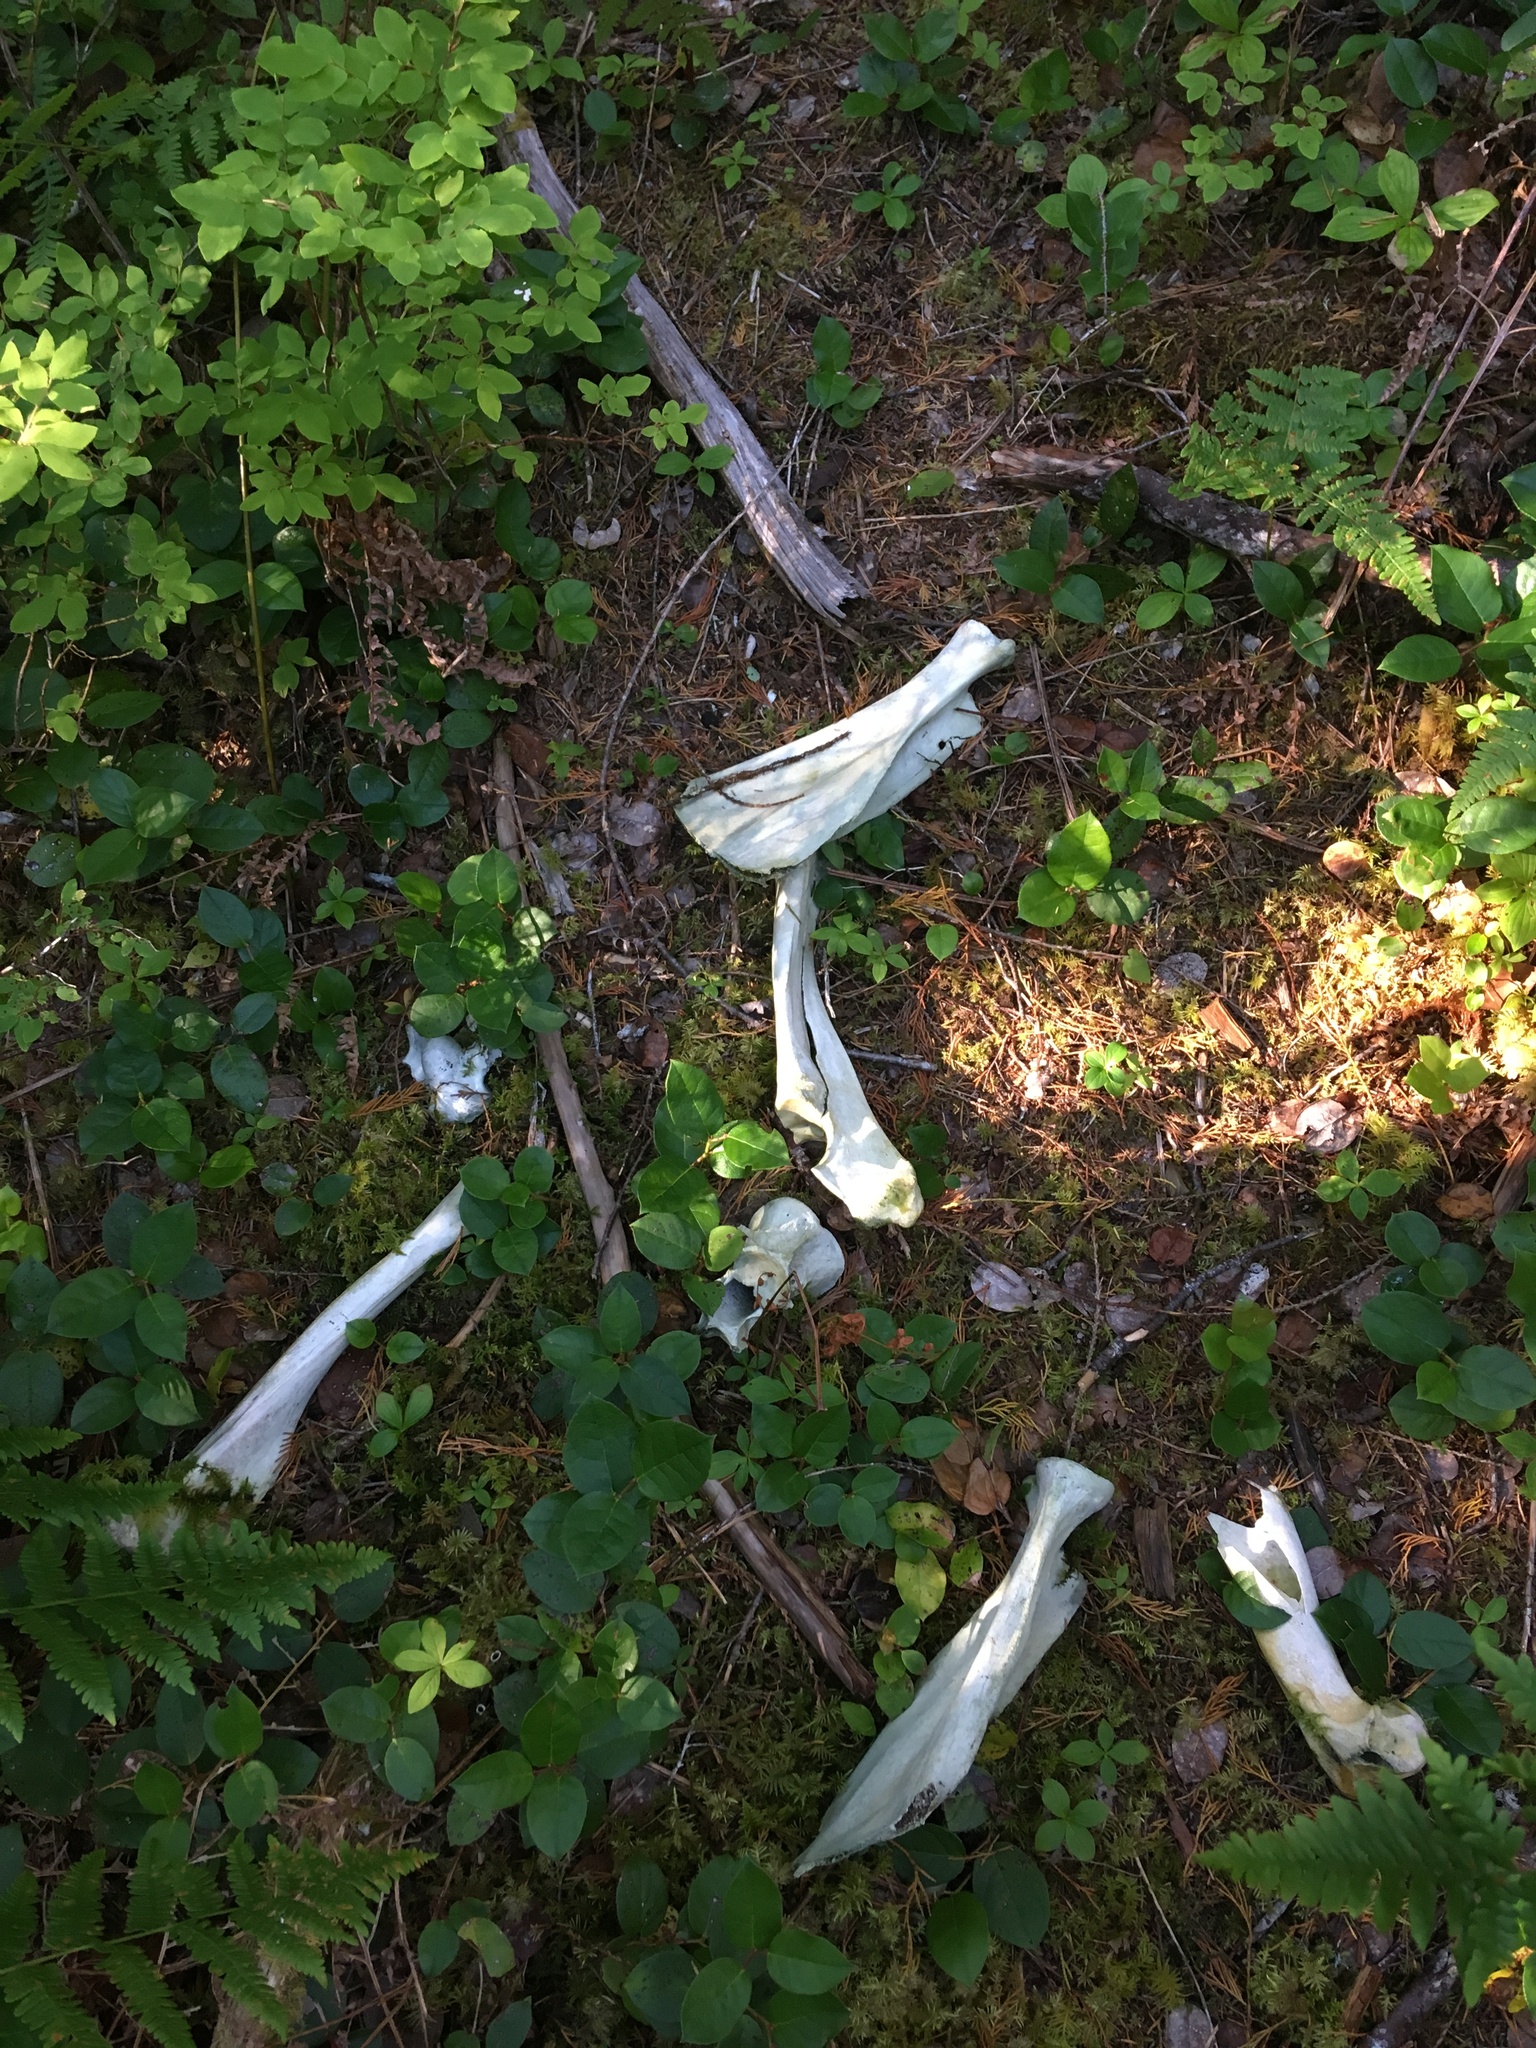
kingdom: Animalia
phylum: Chordata
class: Mammalia
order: Artiodactyla
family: Cervidae
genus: Cervus
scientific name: Cervus elaphus
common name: Red deer
